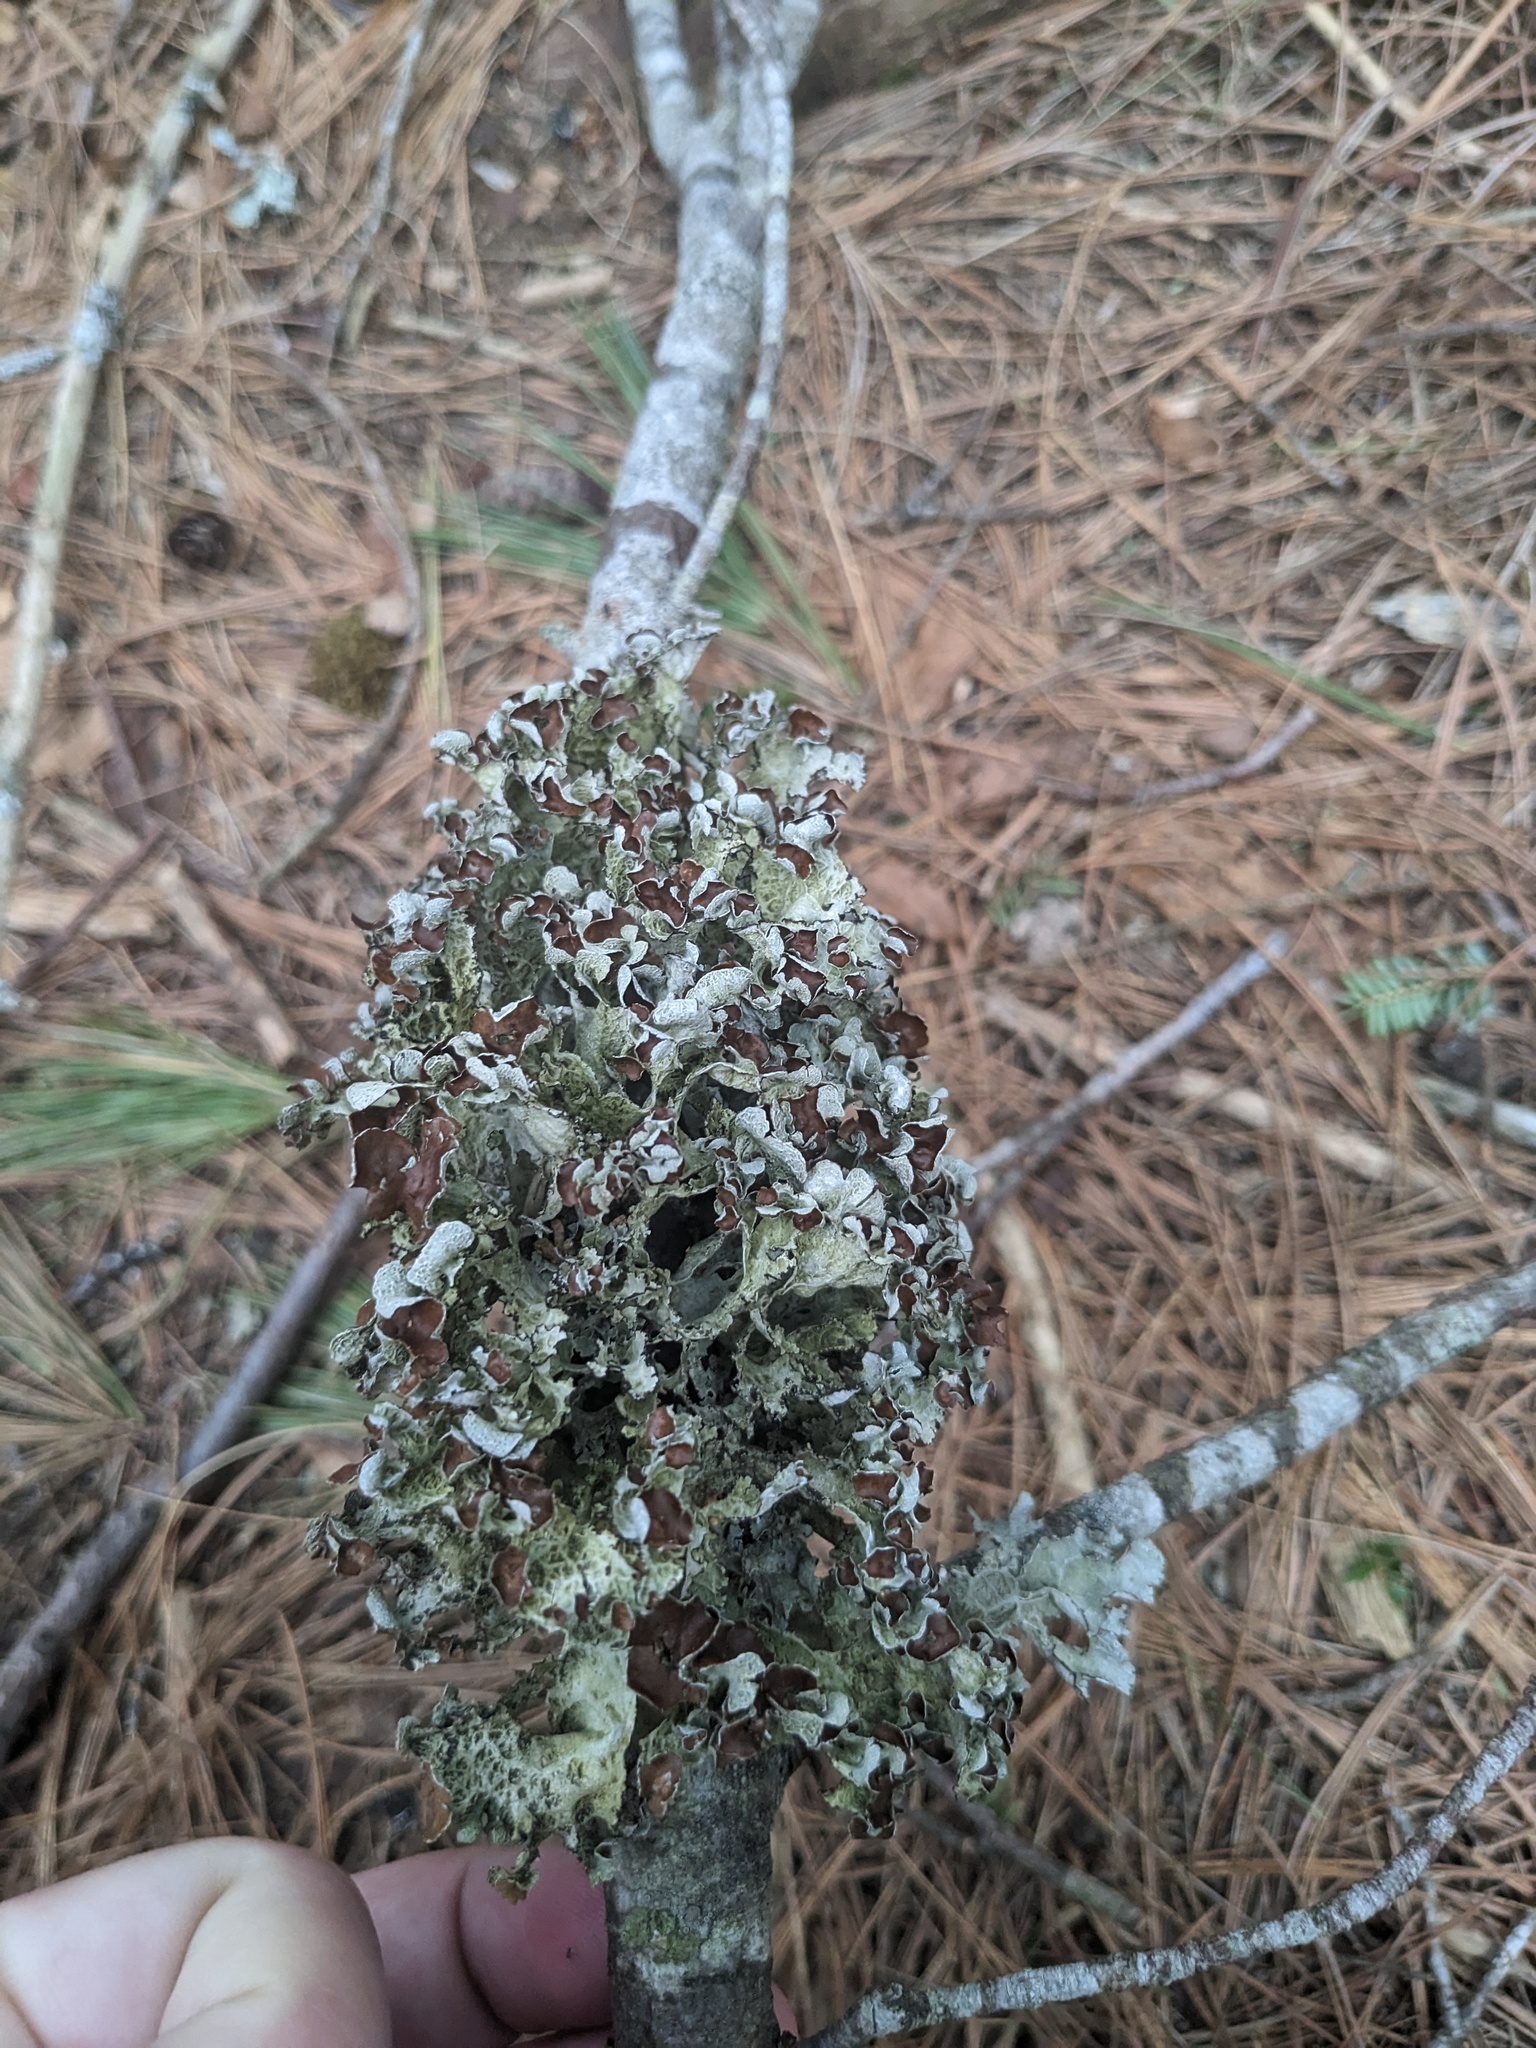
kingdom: Fungi
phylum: Ascomycota
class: Lecanoromycetes
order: Lecanorales
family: Parmeliaceae
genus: Platismatia
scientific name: Platismatia tuckermanii
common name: Crumpled rag lichen
